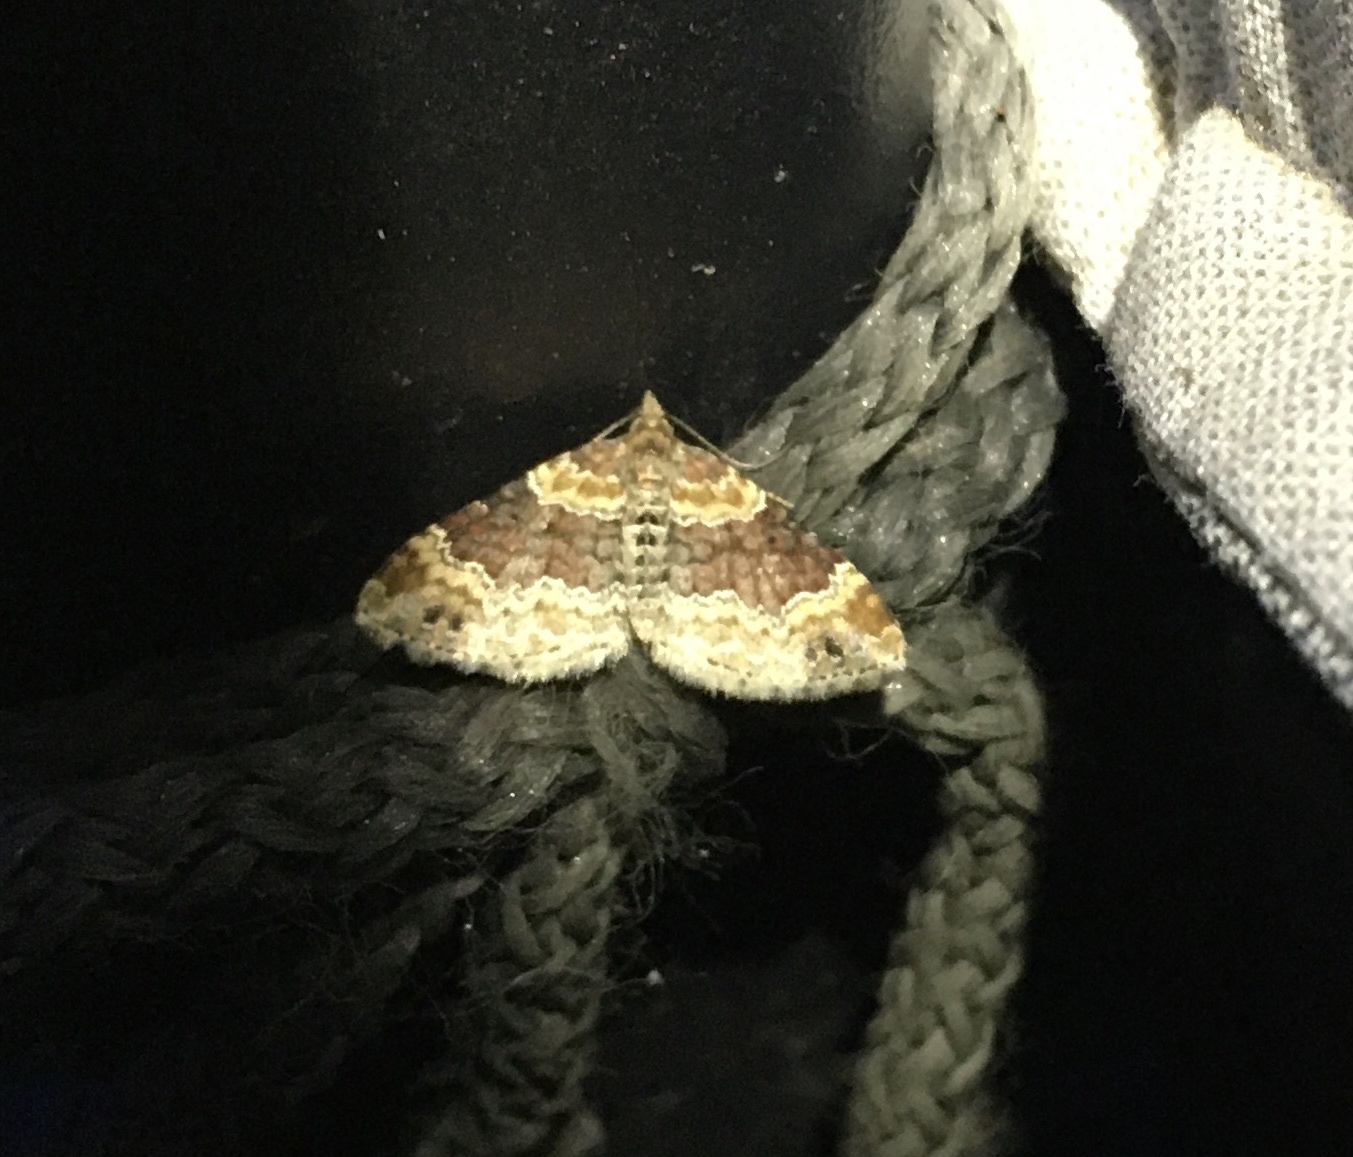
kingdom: Animalia
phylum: Arthropoda
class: Insecta
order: Lepidoptera
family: Geometridae
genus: Xanthorhoe
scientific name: Xanthorhoe spadicearia
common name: Red twin-spot carpet
